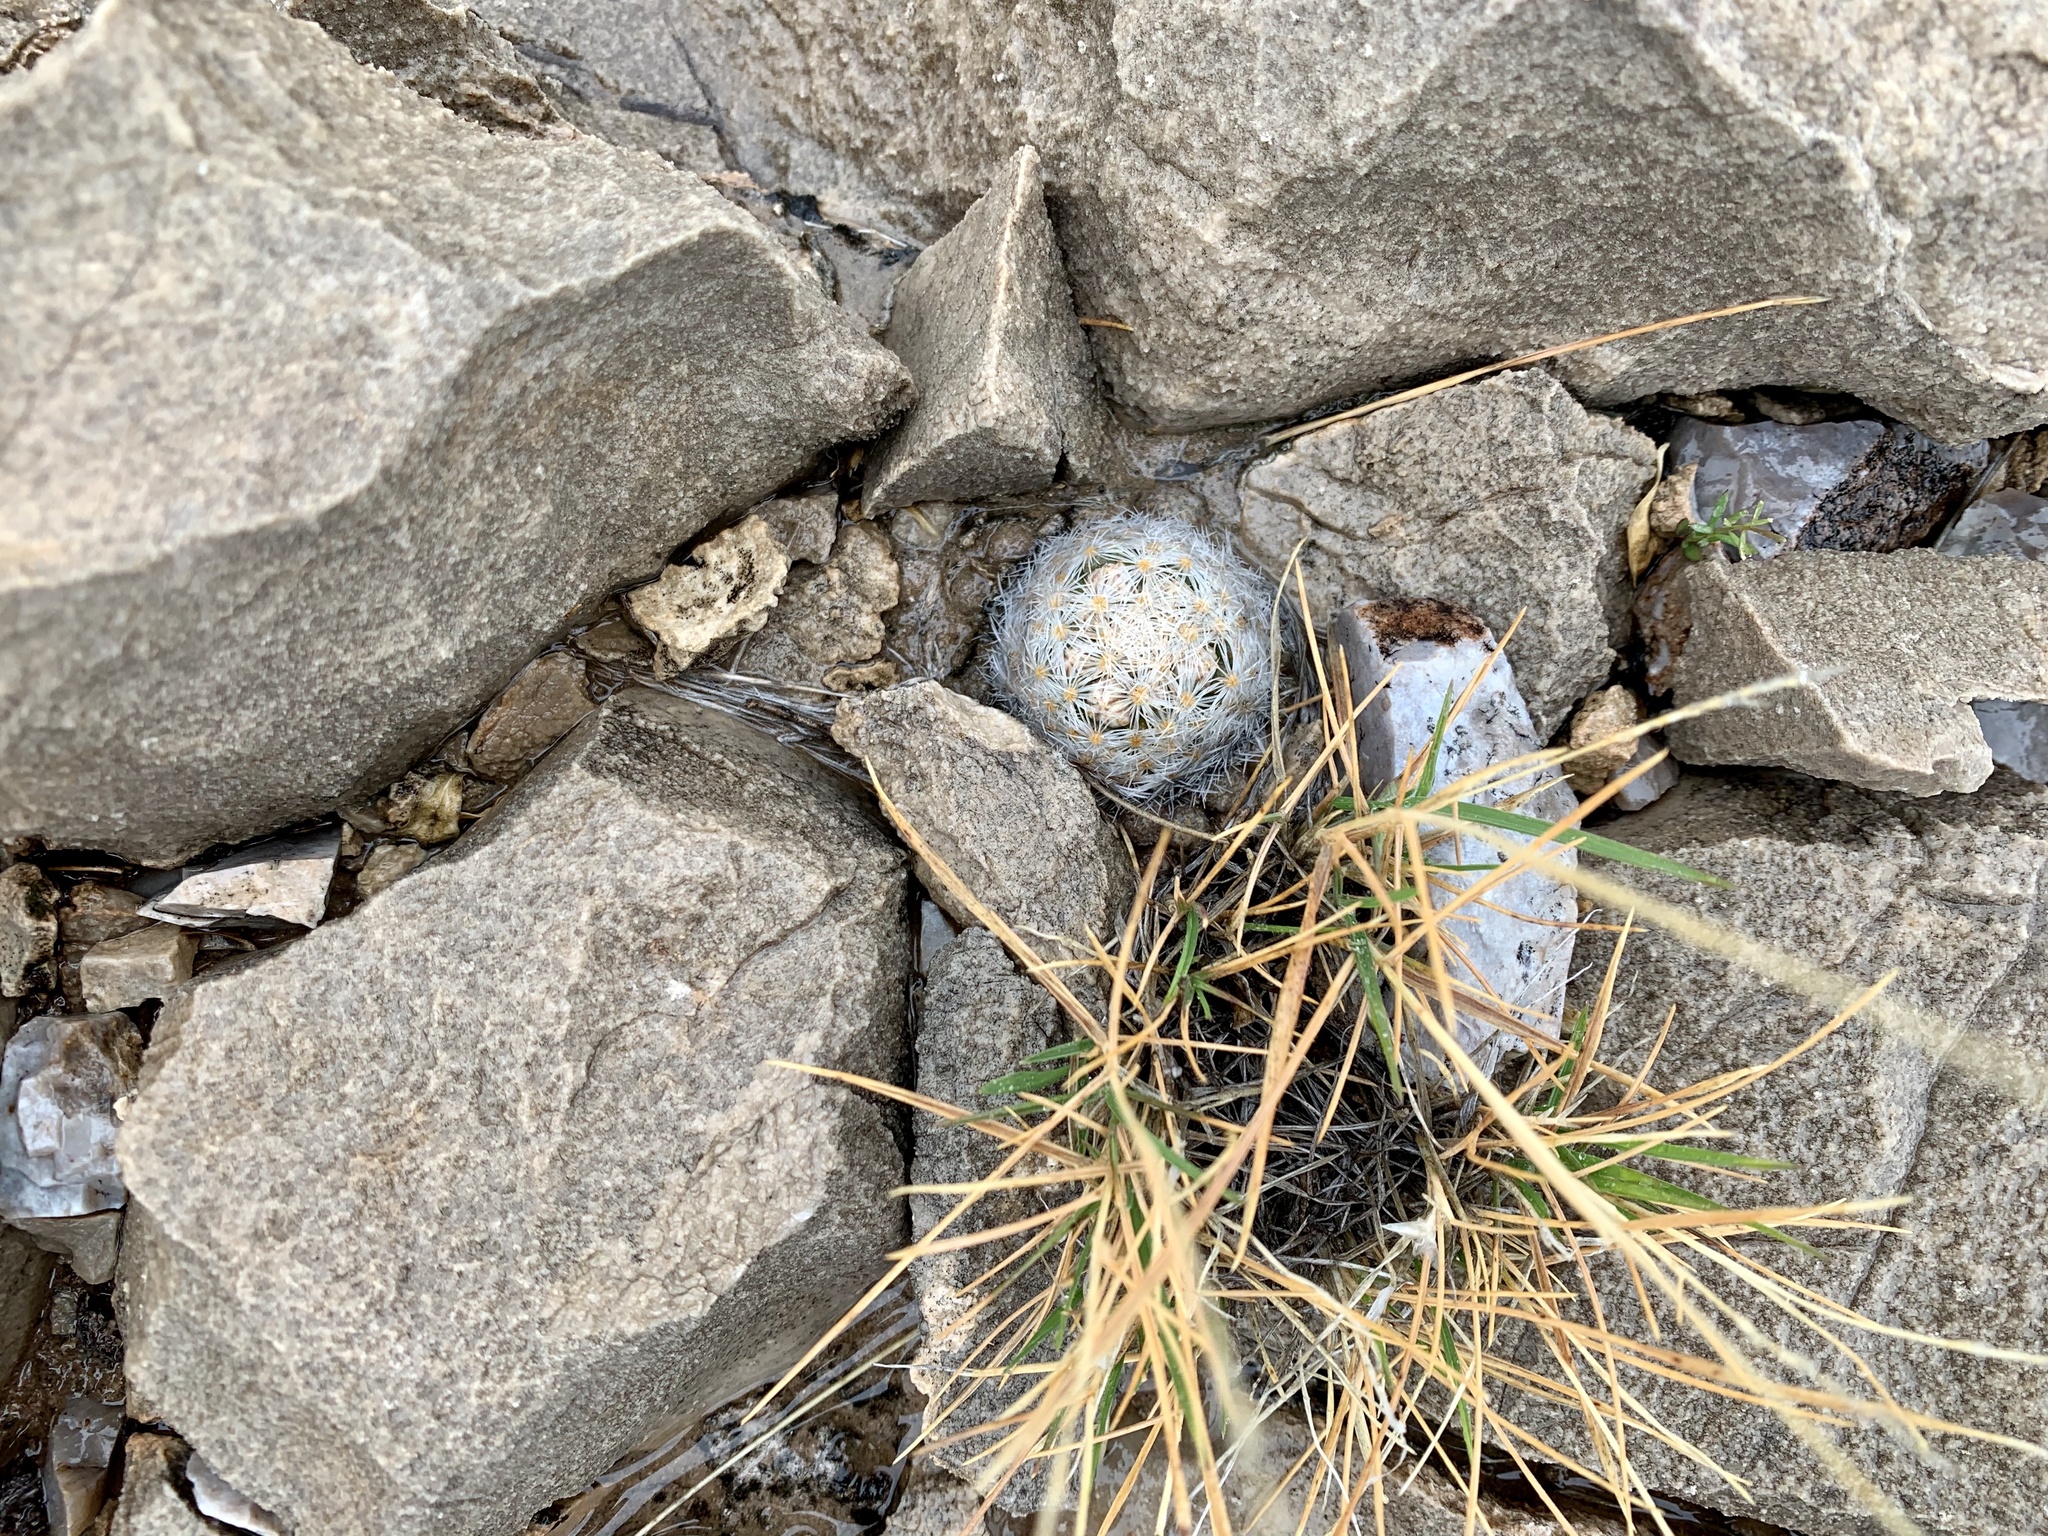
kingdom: Plantae
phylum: Tracheophyta
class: Magnoliopsida
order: Caryophyllales
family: Cactaceae
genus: Mammillaria
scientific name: Mammillaria lasiacantha
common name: Lace-spine nipple cactus
